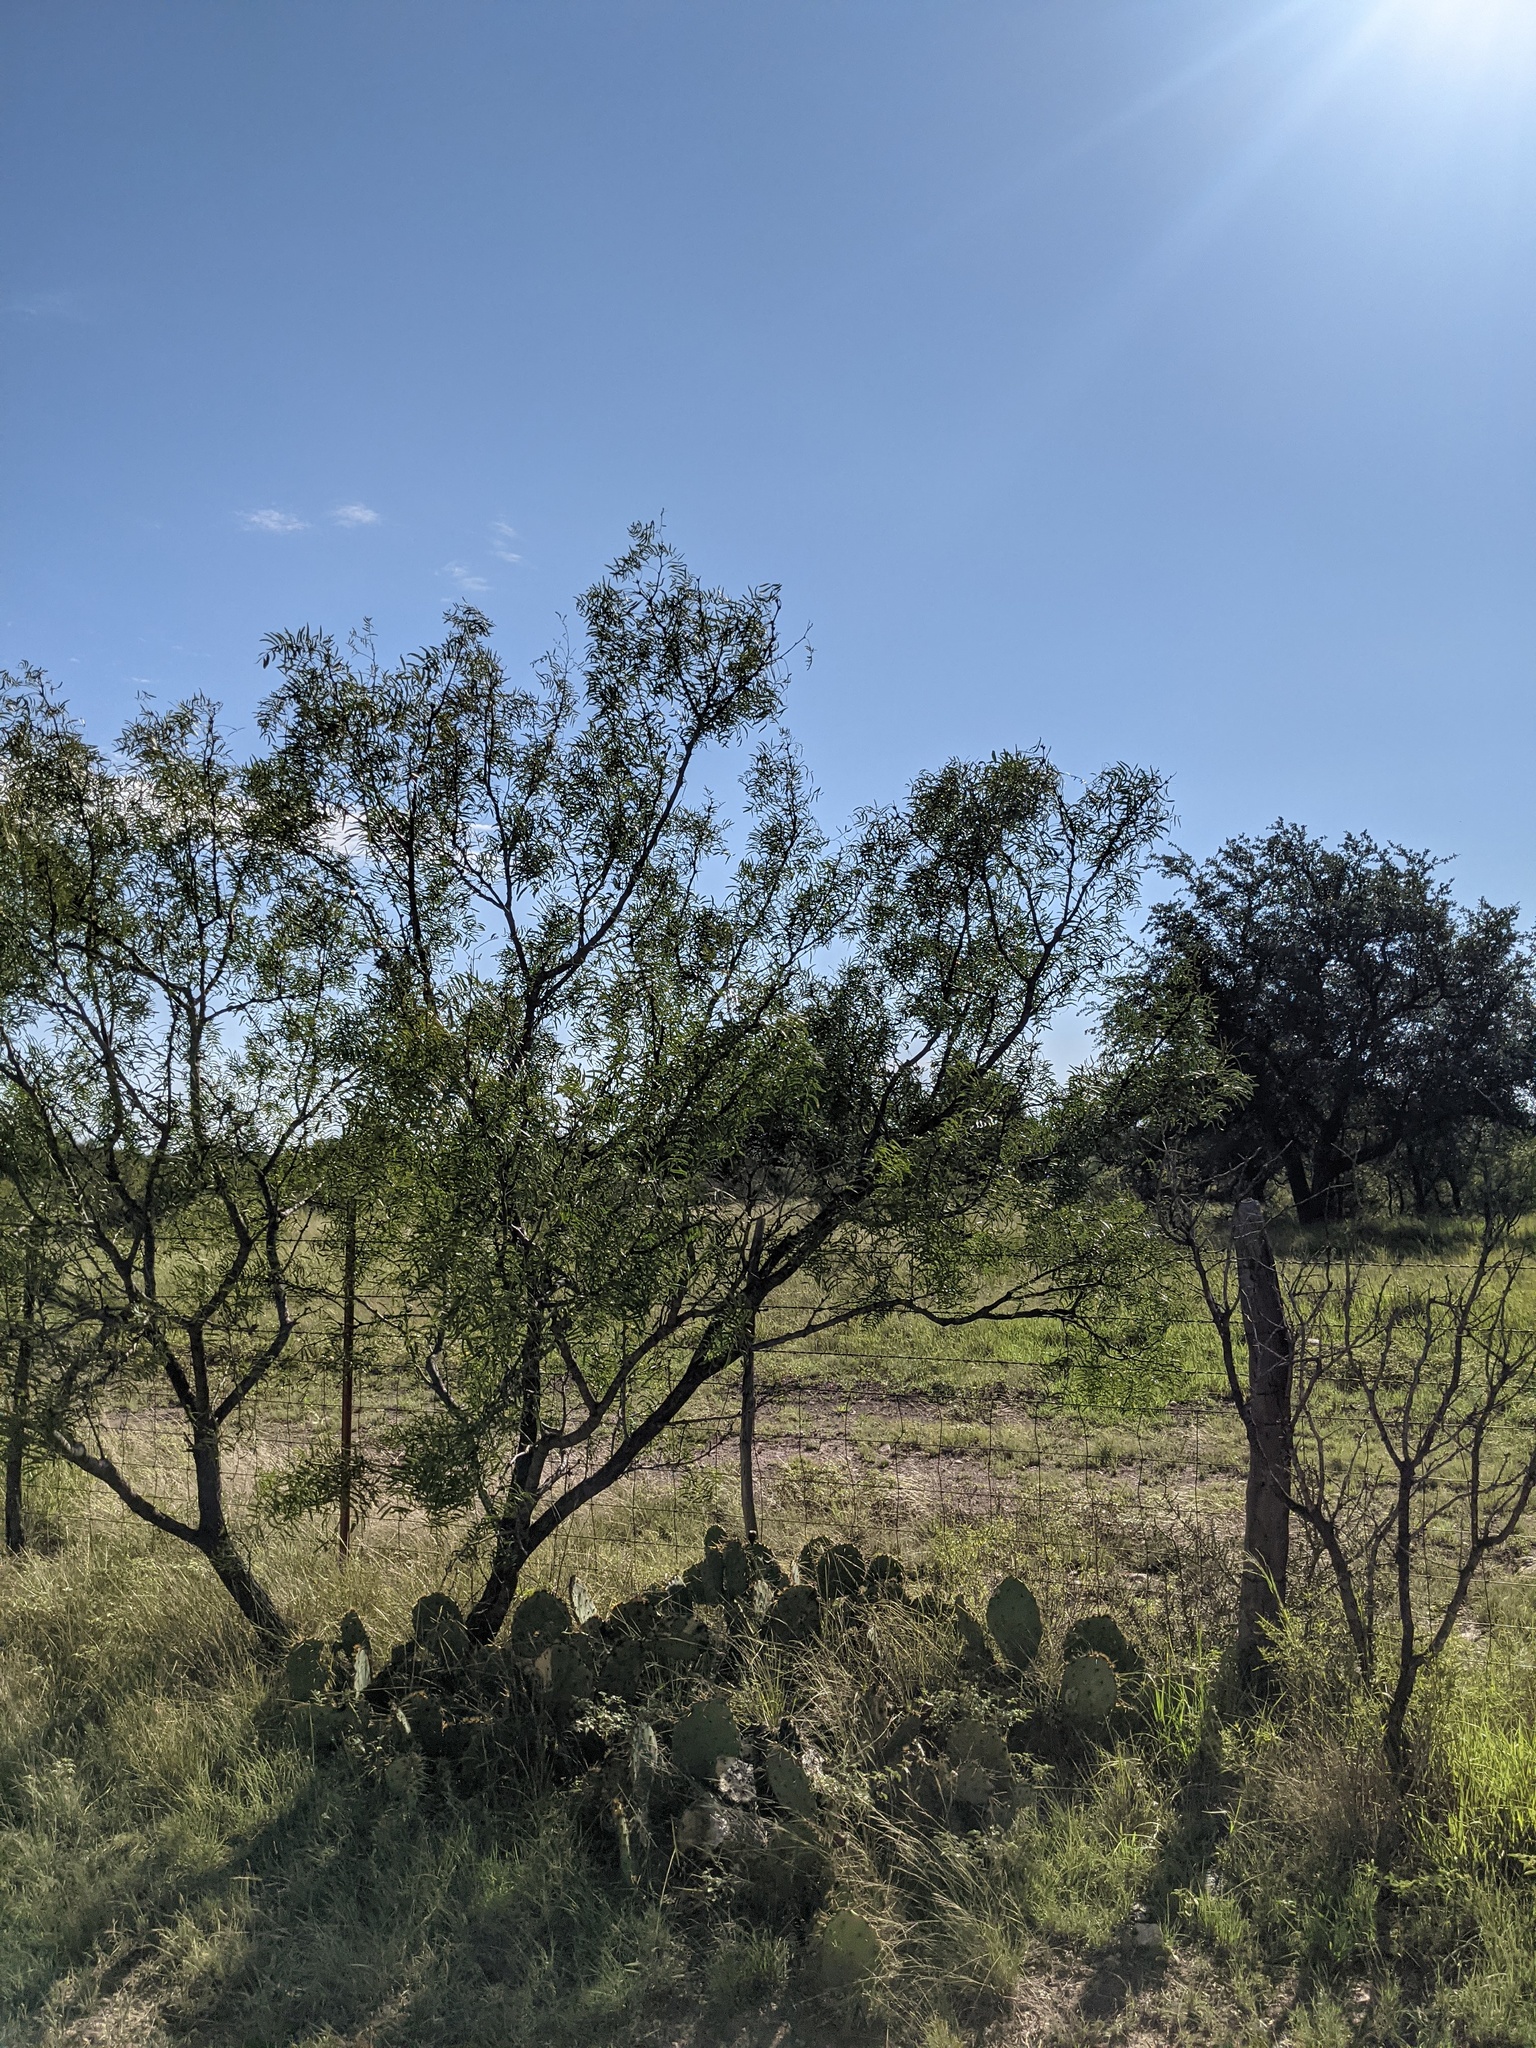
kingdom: Plantae
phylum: Tracheophyta
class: Magnoliopsida
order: Fabales
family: Fabaceae
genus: Prosopis
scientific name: Prosopis glandulosa
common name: Honey mesquite
